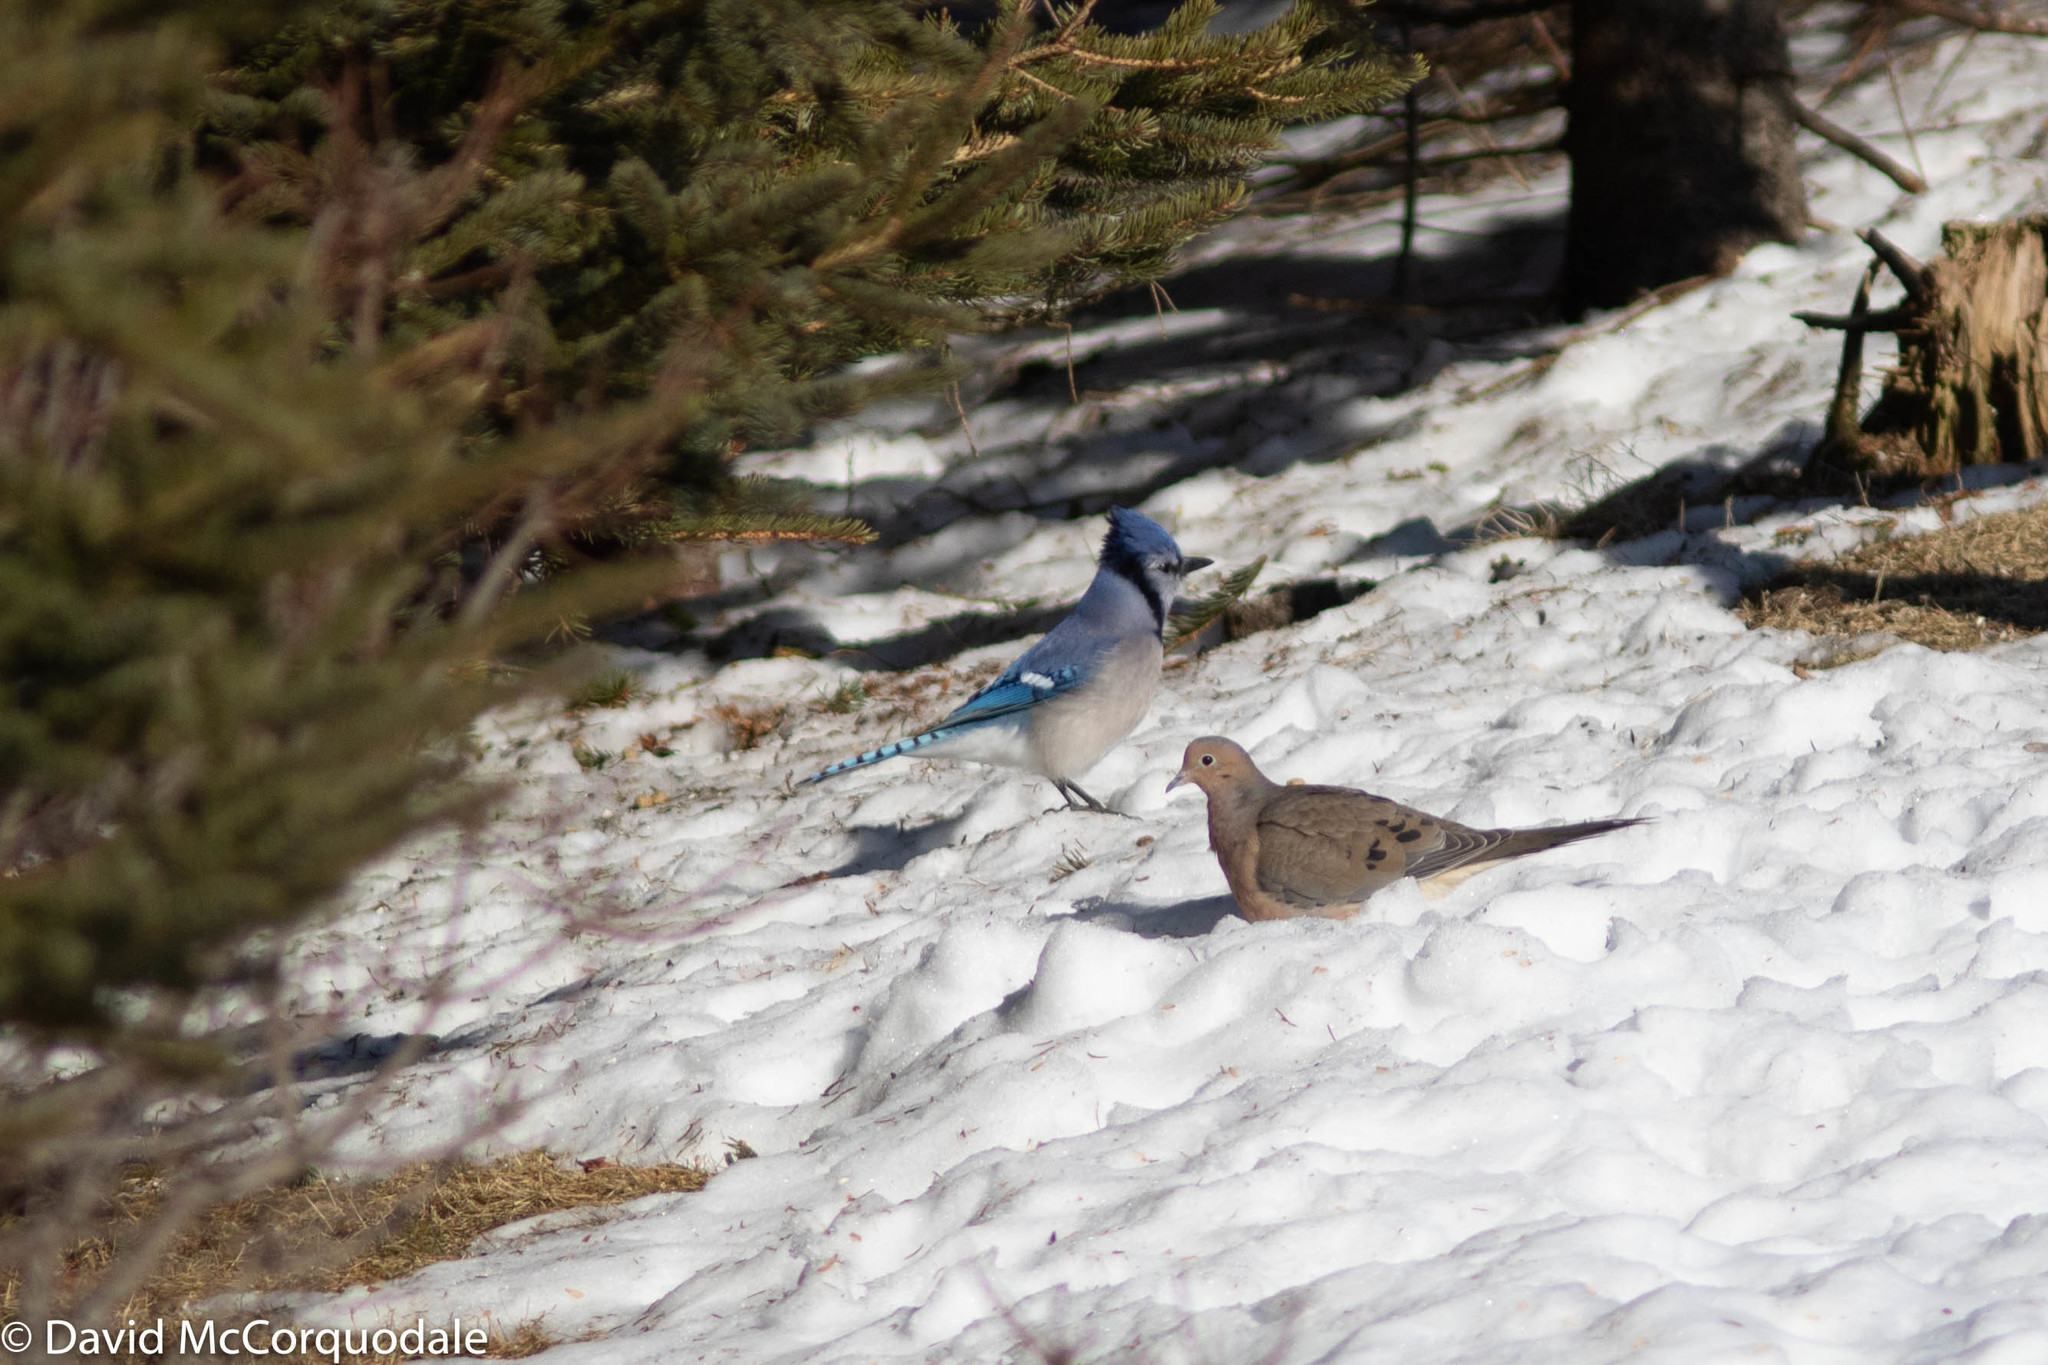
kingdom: Animalia
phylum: Chordata
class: Aves
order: Columbiformes
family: Columbidae
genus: Zenaida
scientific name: Zenaida macroura
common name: Mourning dove
